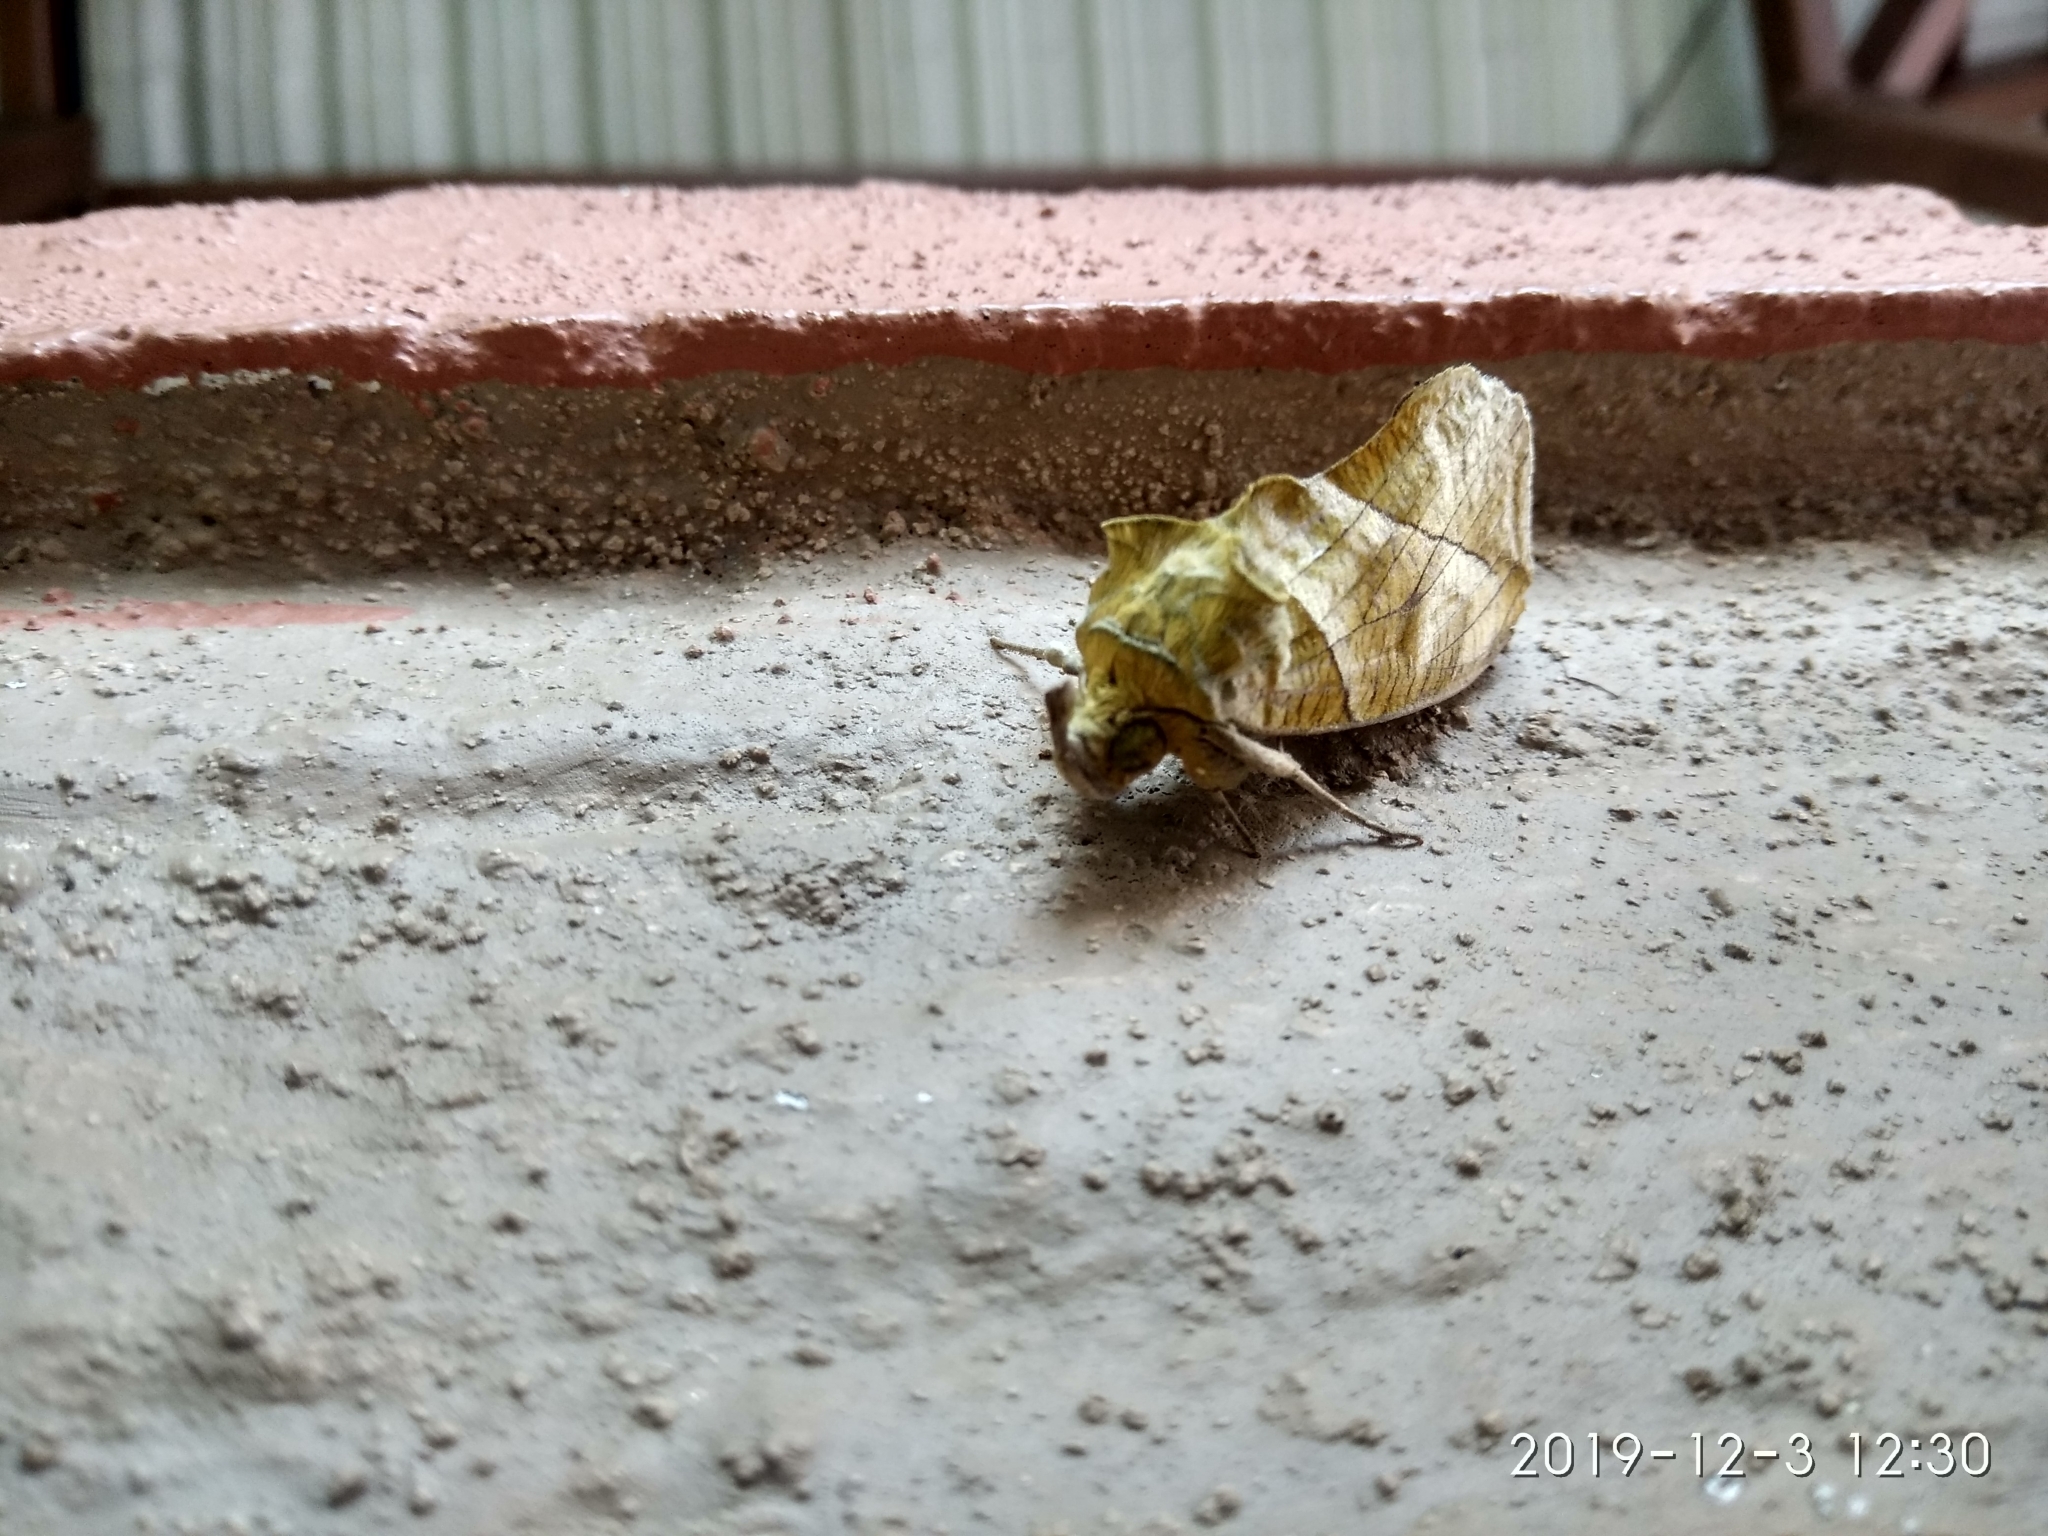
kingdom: Animalia
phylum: Arthropoda
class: Insecta
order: Lepidoptera
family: Erebidae
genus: Eudocima
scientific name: Eudocima hypermnestra
